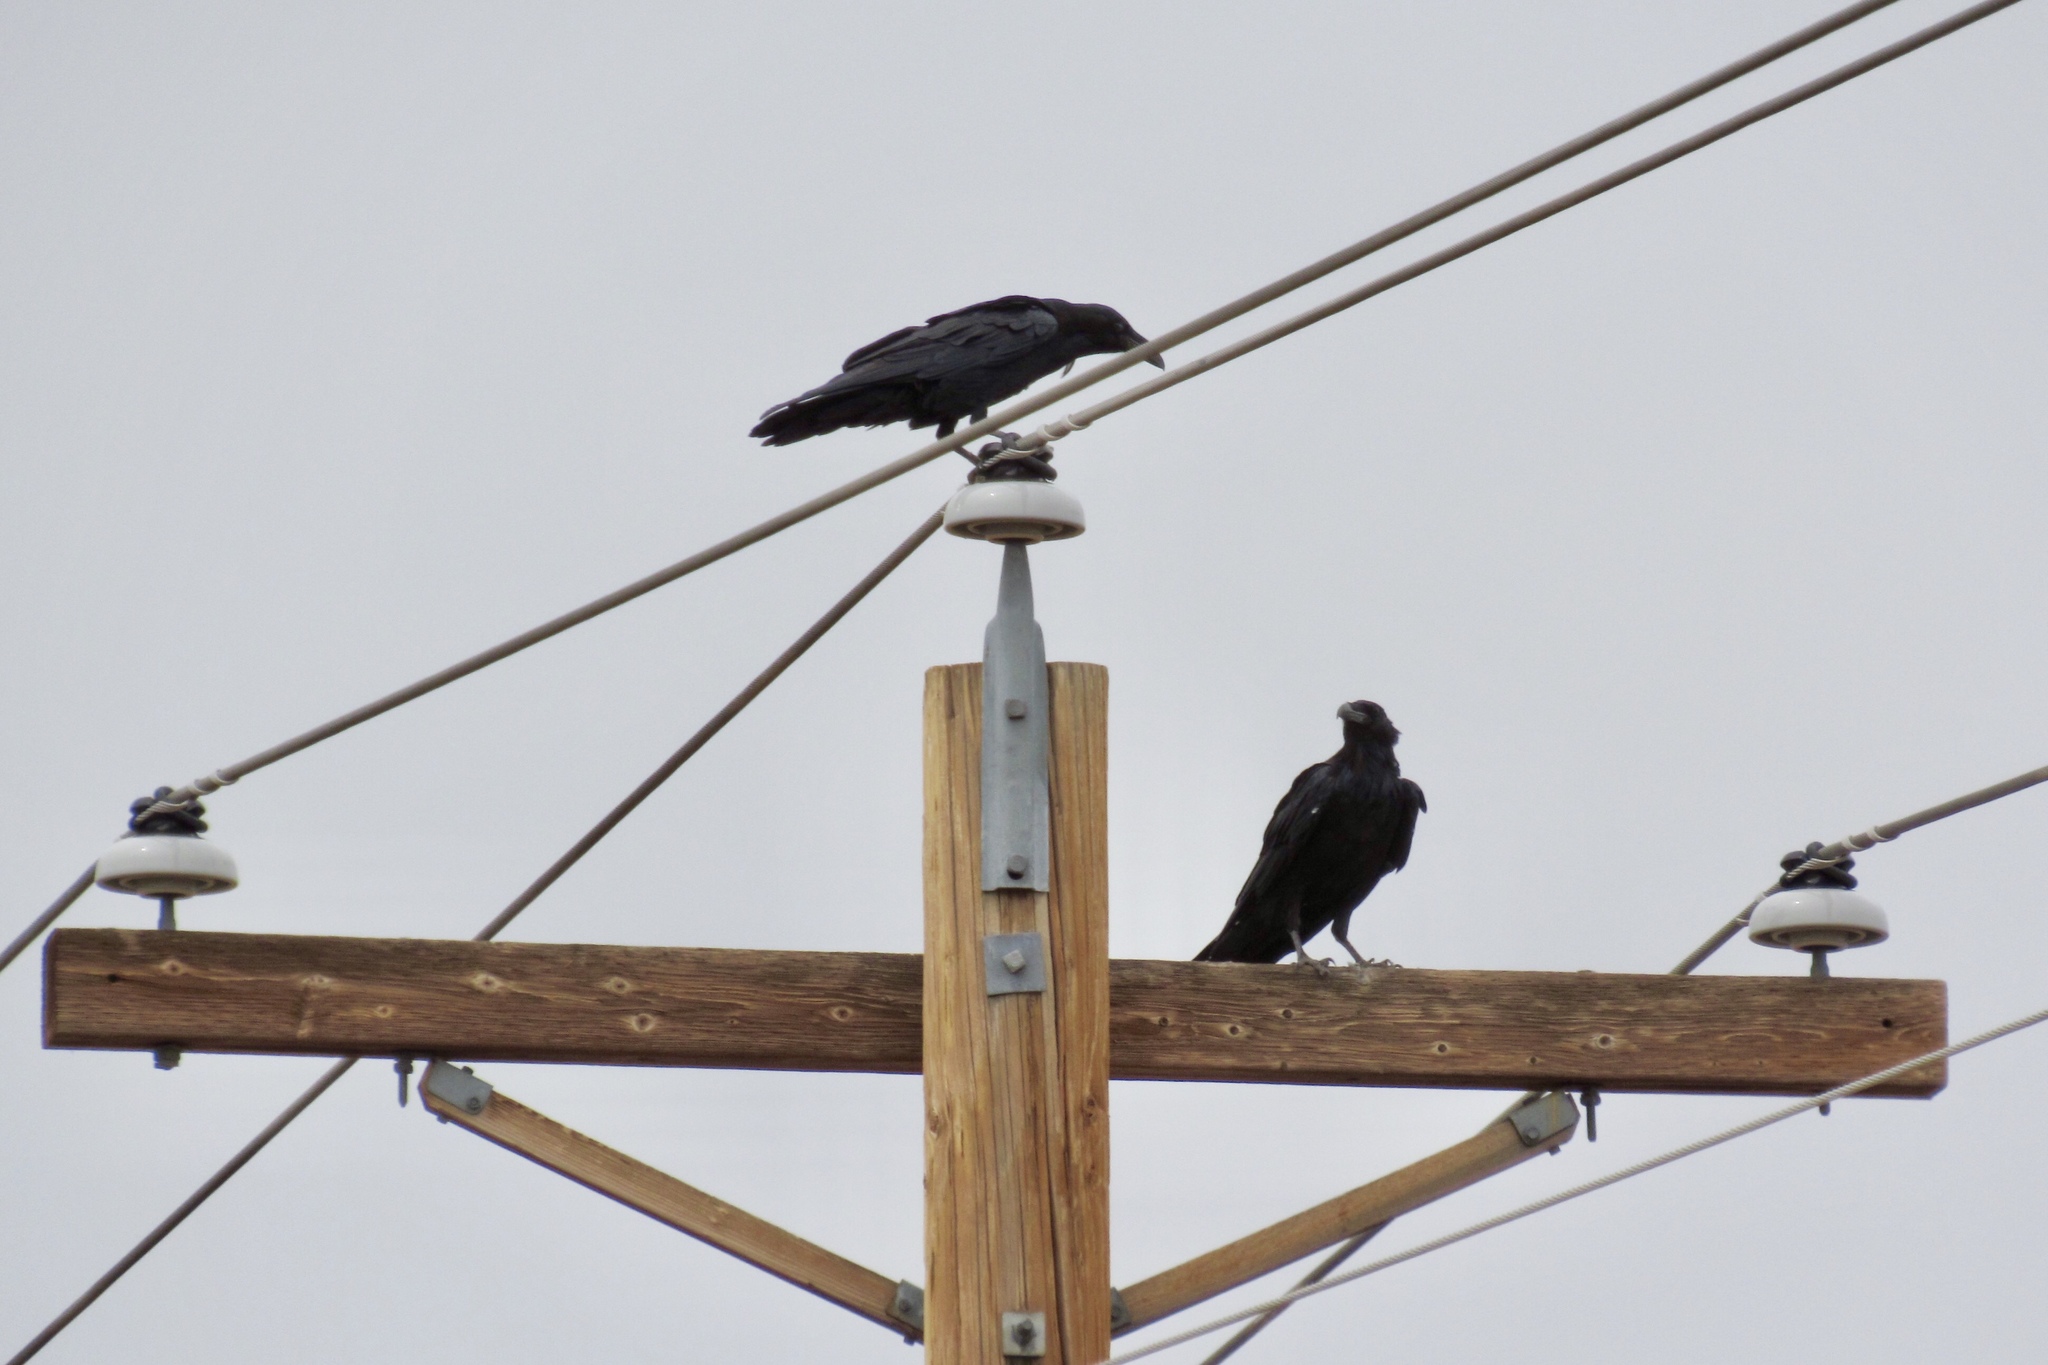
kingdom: Animalia
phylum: Chordata
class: Aves
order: Passeriformes
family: Corvidae
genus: Corvus
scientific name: Corvus corax
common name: Common raven
